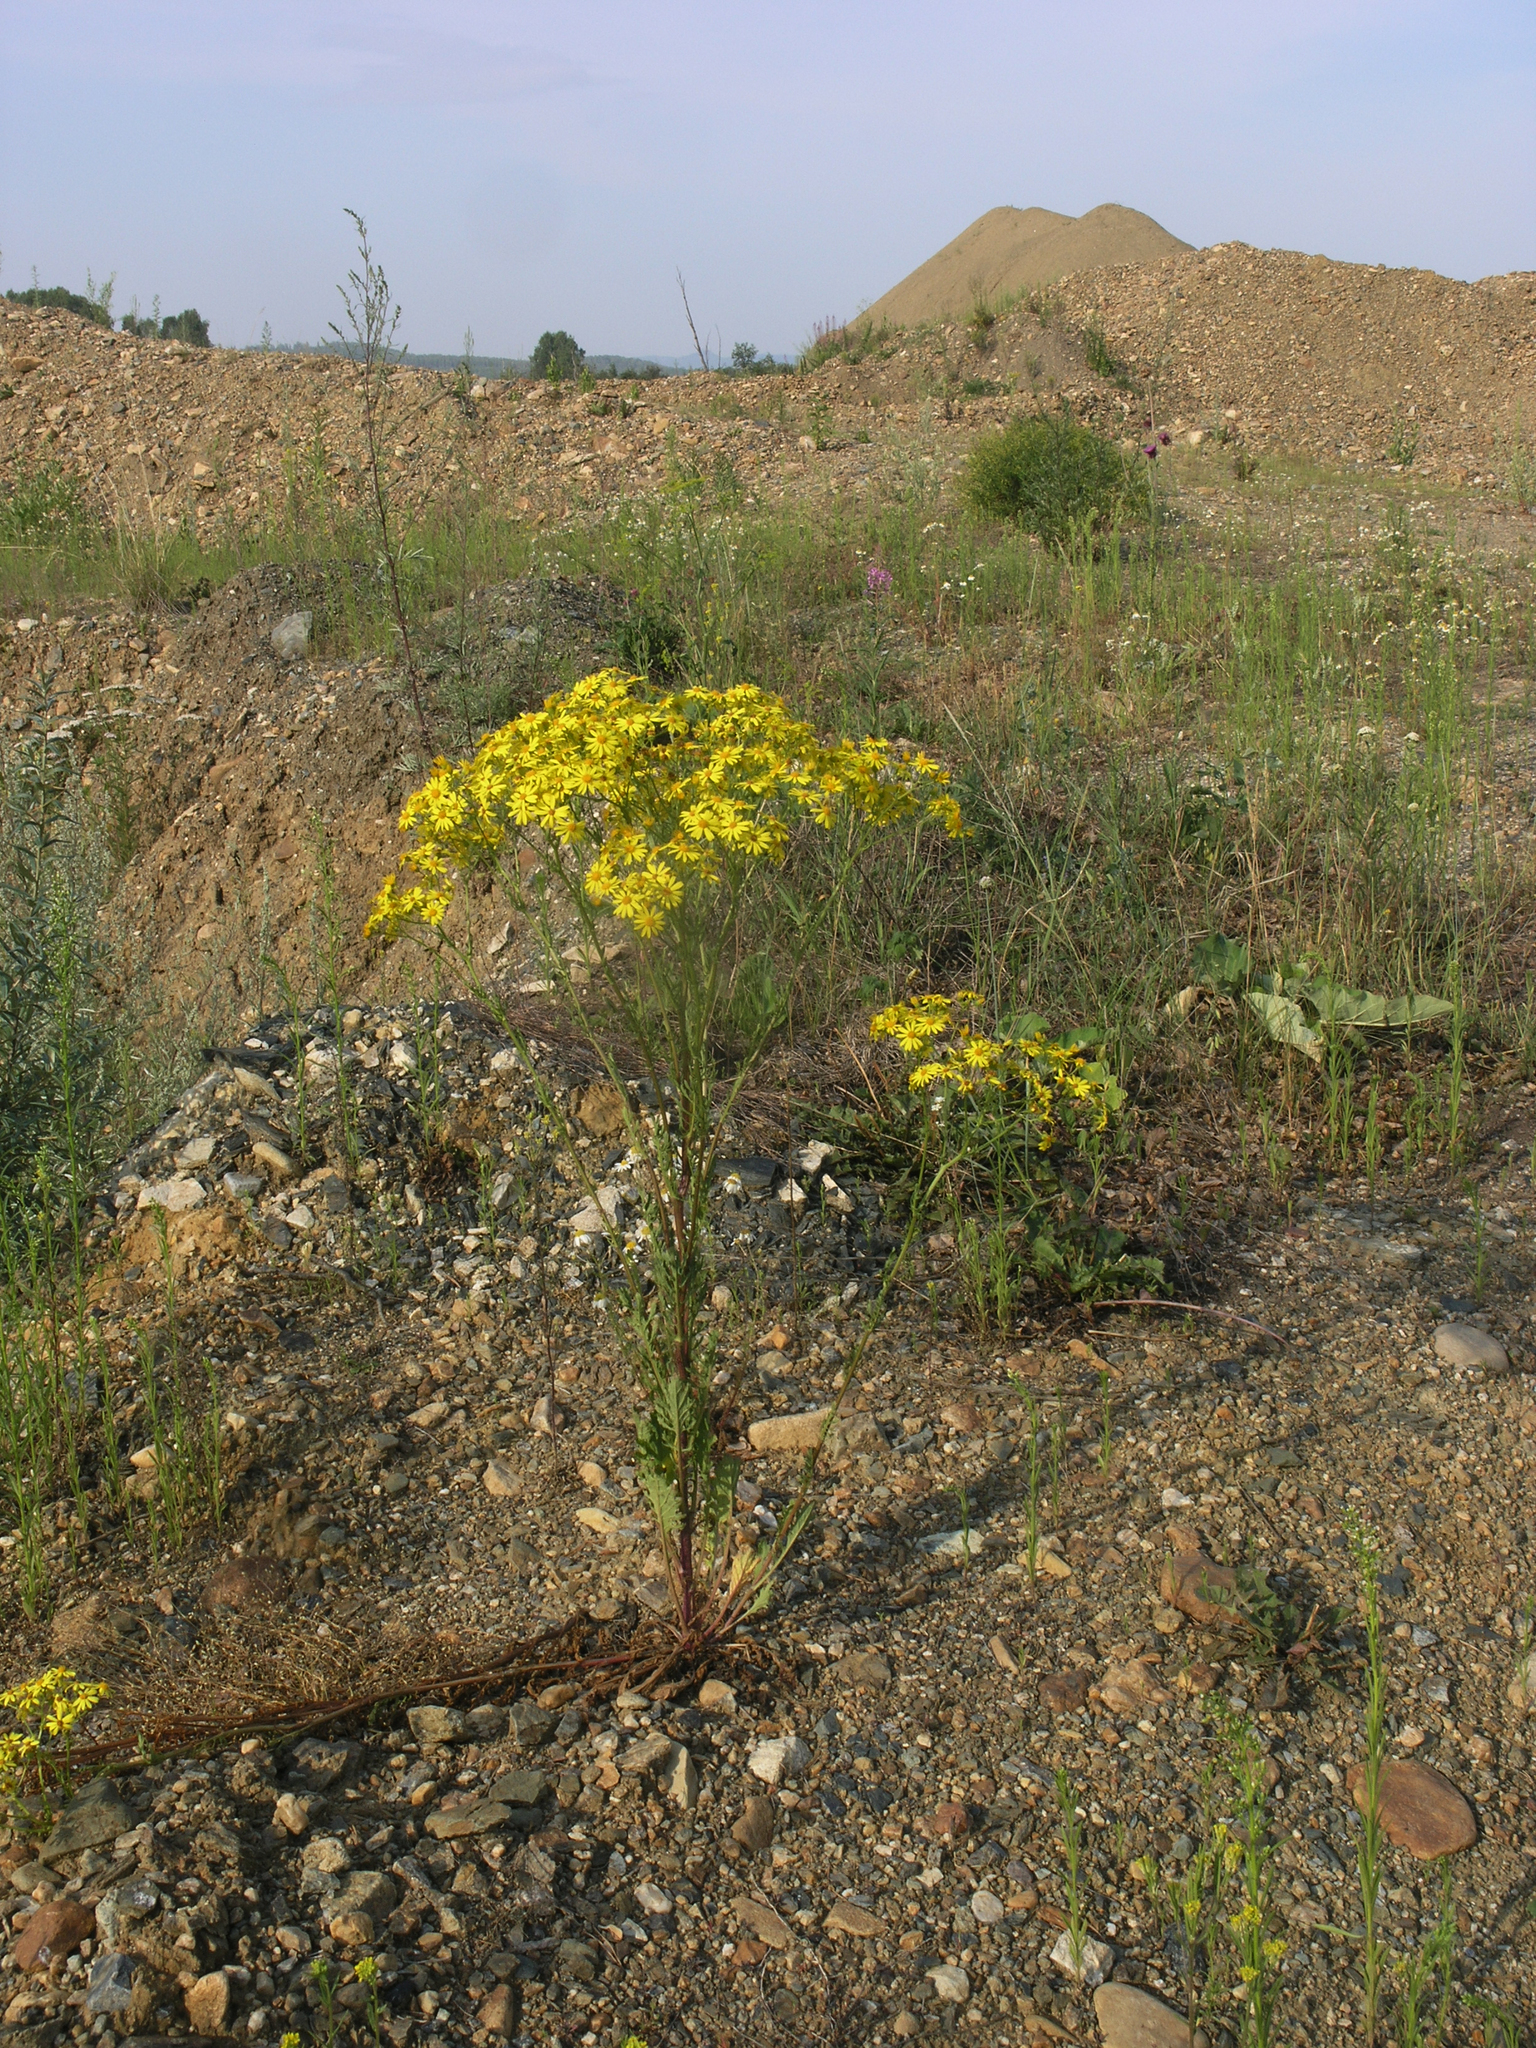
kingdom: Plantae
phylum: Tracheophyta
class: Magnoliopsida
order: Asterales
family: Asteraceae
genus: Jacobaea
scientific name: Jacobaea erucifolia
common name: Hoary ragwort
